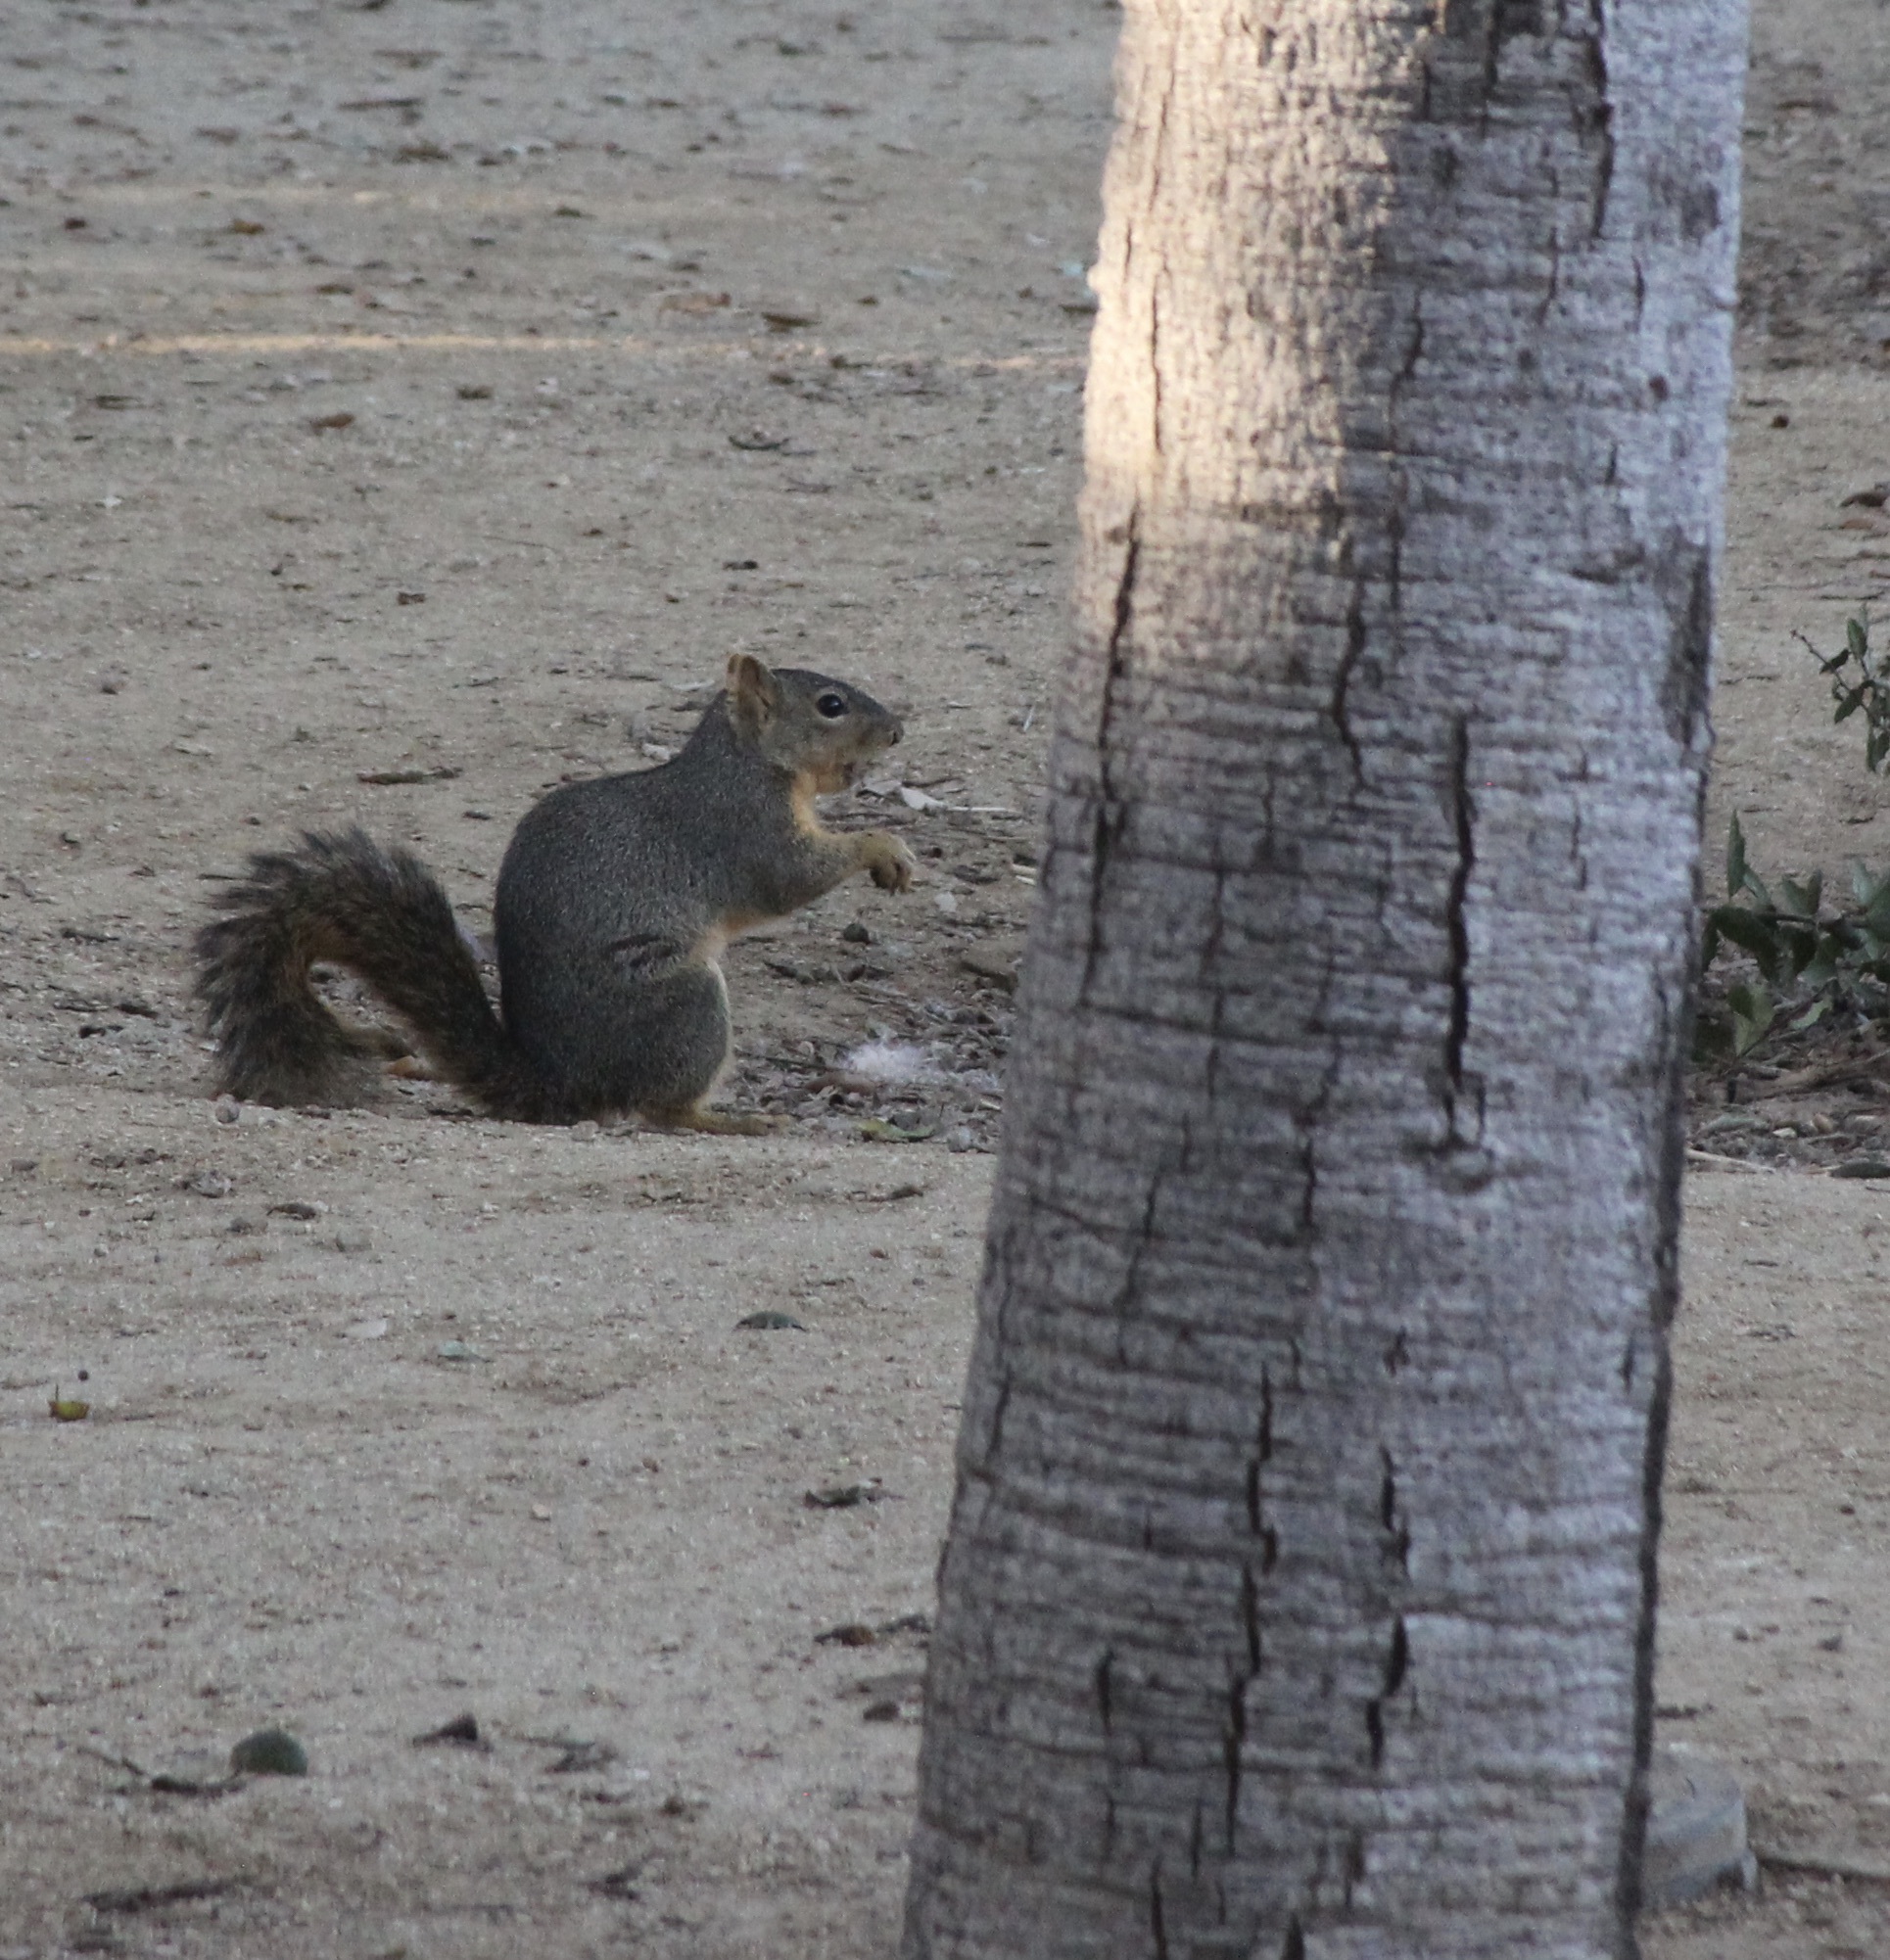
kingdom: Animalia
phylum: Chordata
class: Mammalia
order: Rodentia
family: Sciuridae
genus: Sciurus
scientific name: Sciurus niger
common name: Fox squirrel
